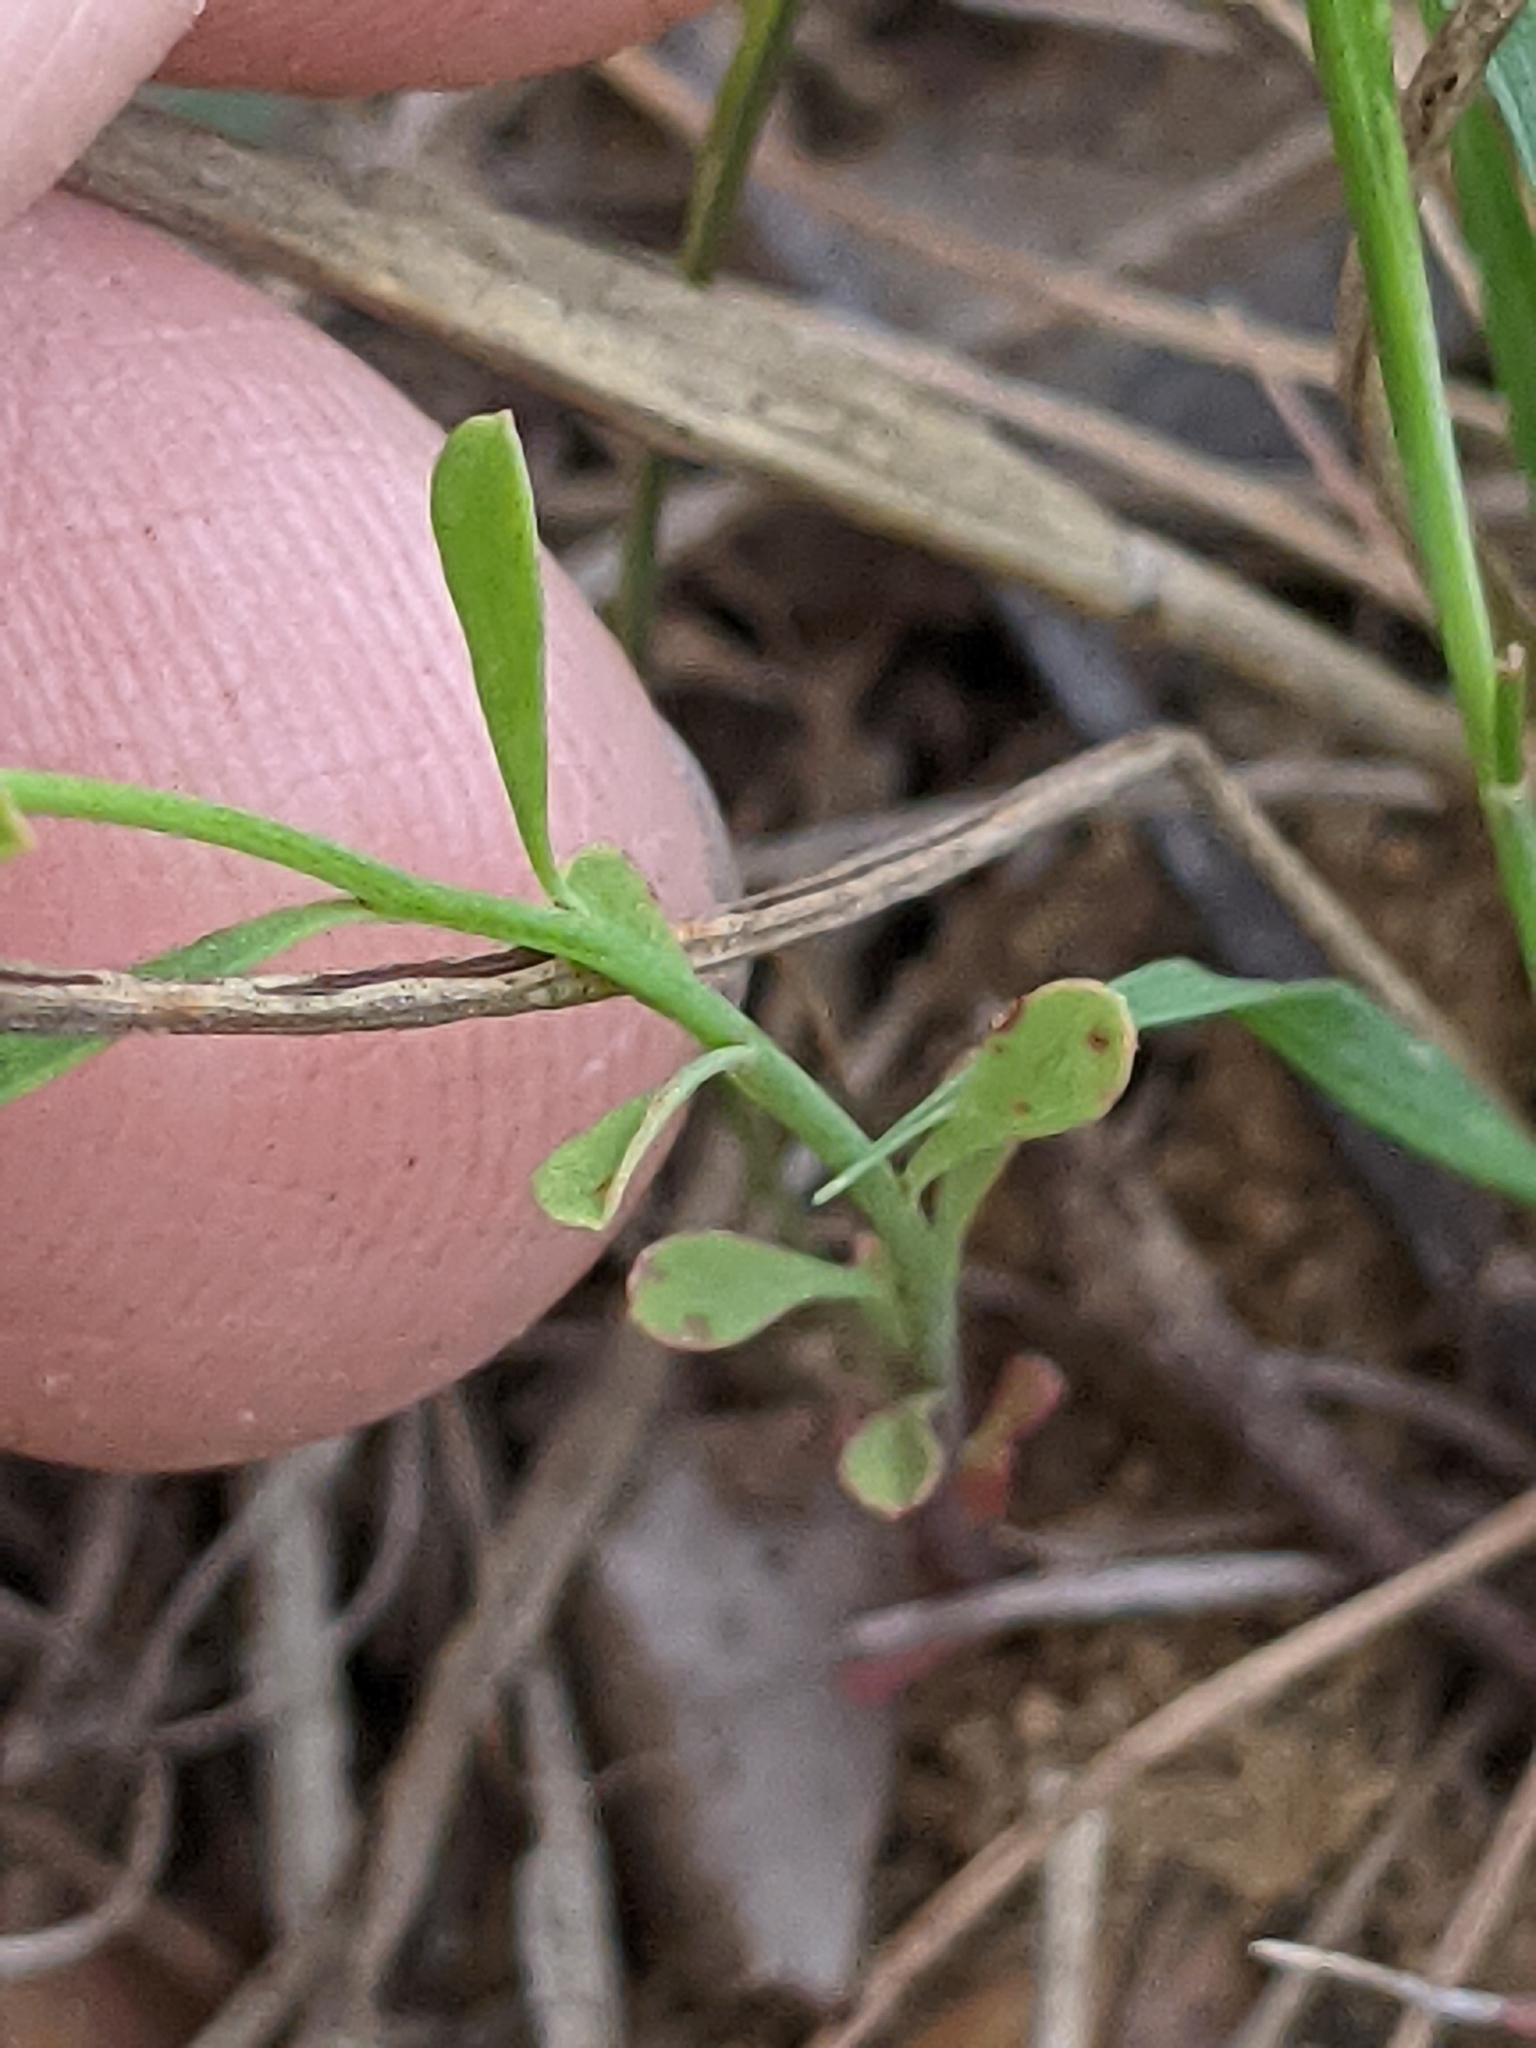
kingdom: Plantae
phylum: Tracheophyta
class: Magnoliopsida
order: Malpighiales
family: Euphorbiaceae
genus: Euphorbia
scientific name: Euphorbia tetrapora
